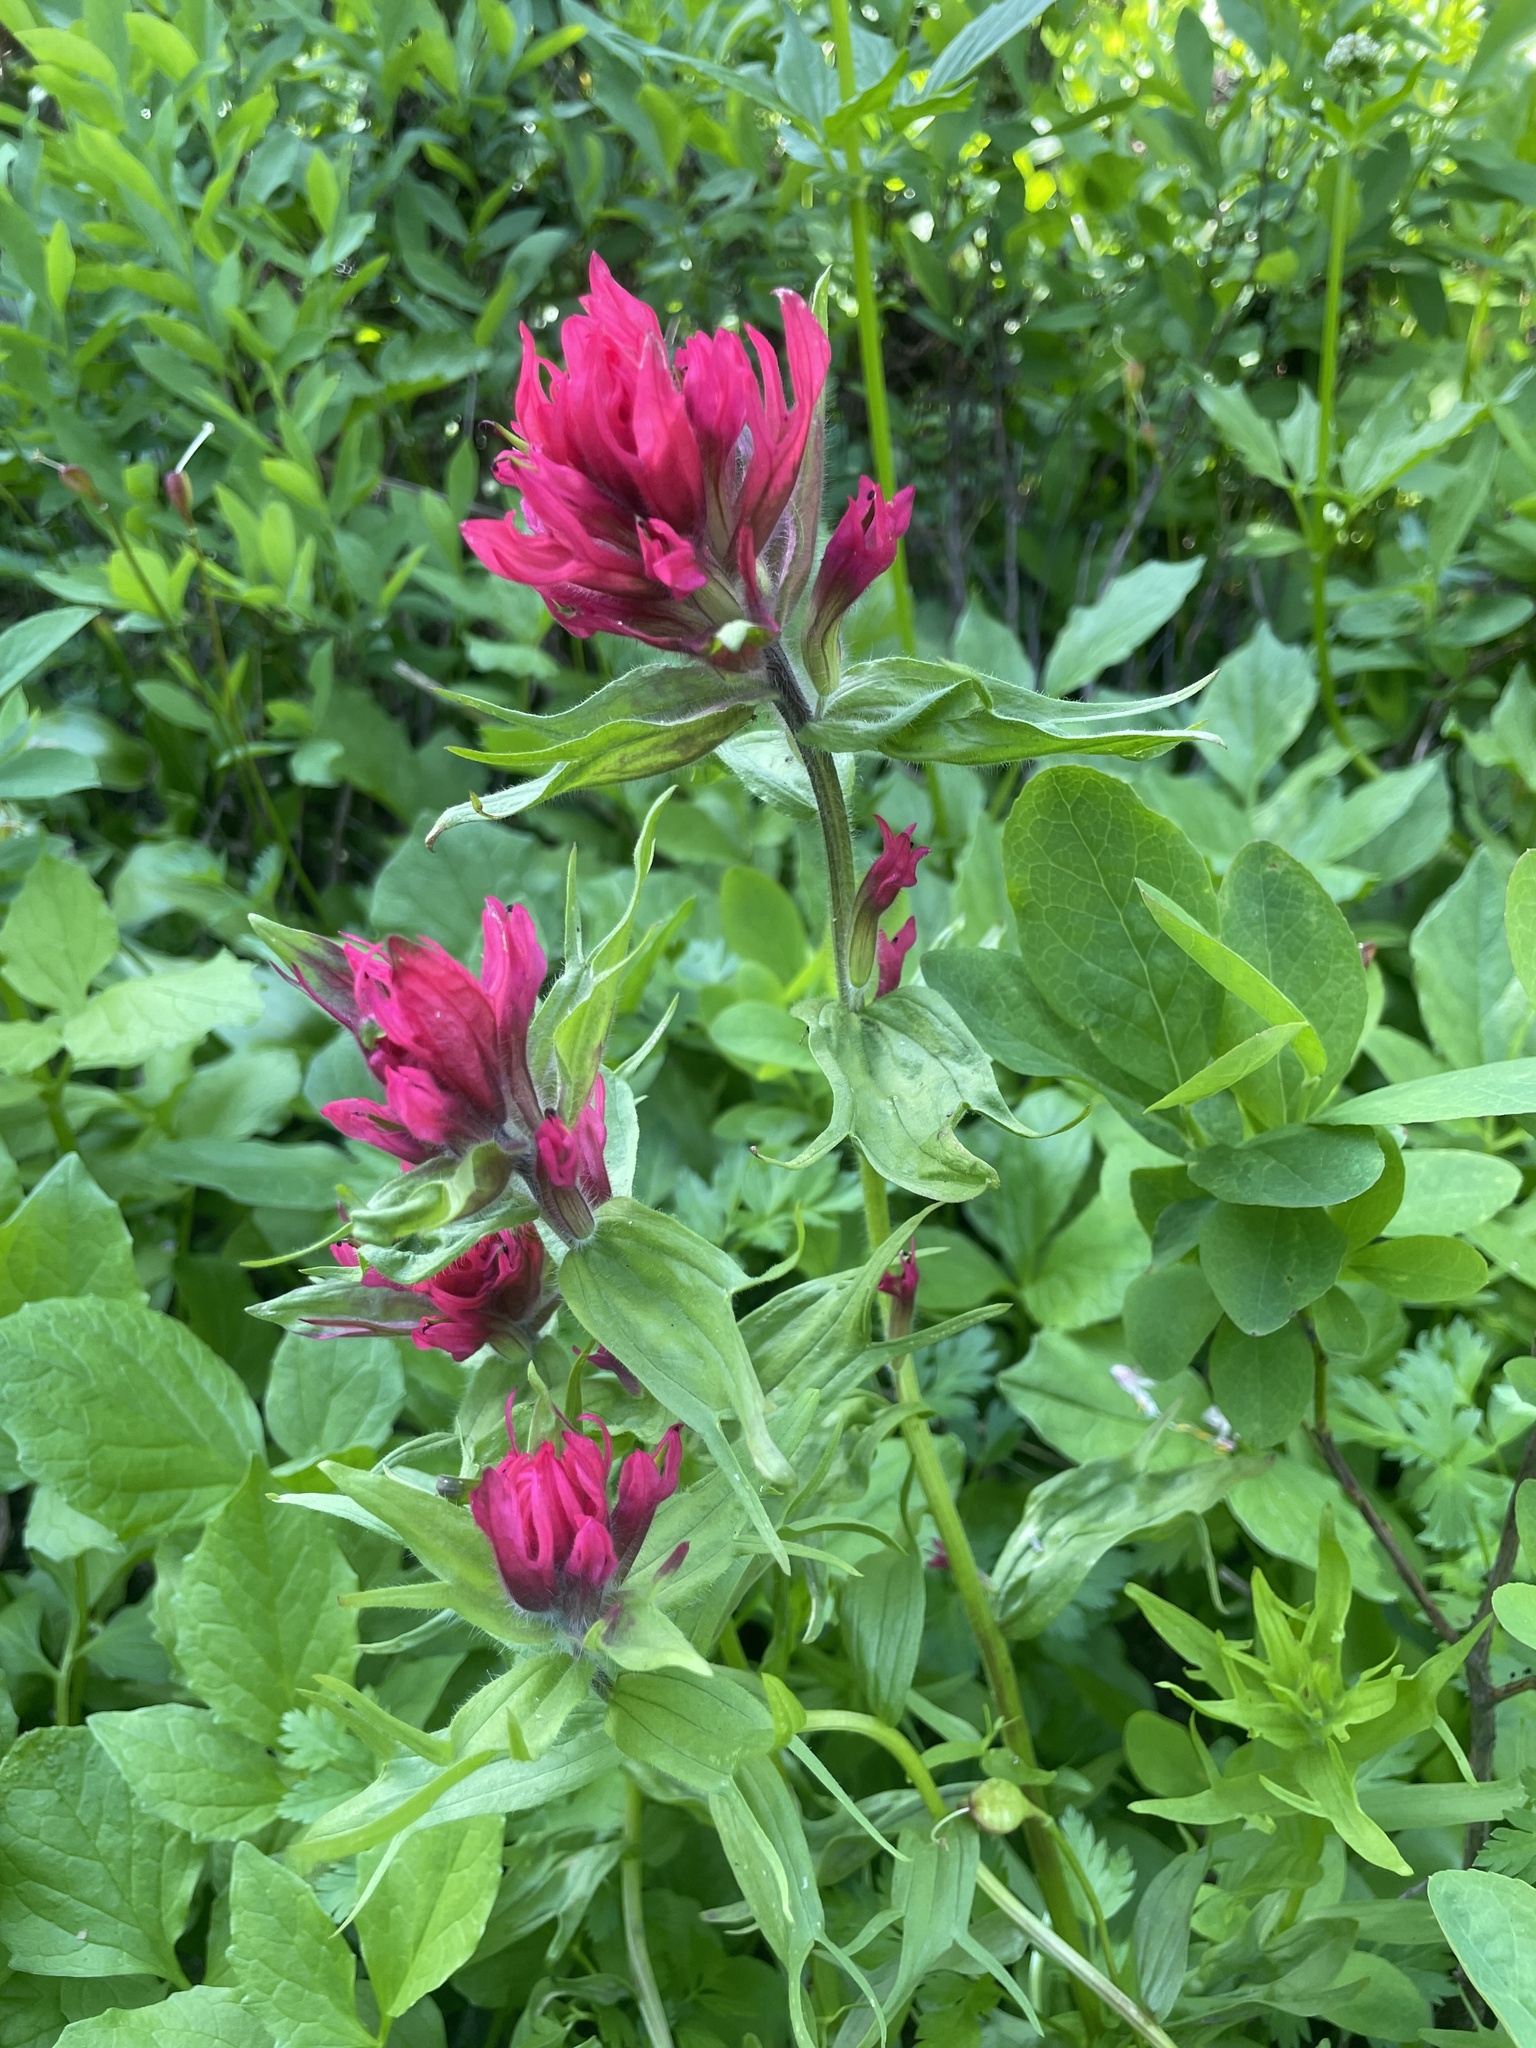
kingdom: Plantae
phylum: Tracheophyta
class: Magnoliopsida
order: Lamiales
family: Orobanchaceae
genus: Castilleja
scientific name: Castilleja parviflora
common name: Mountain paintbrush
